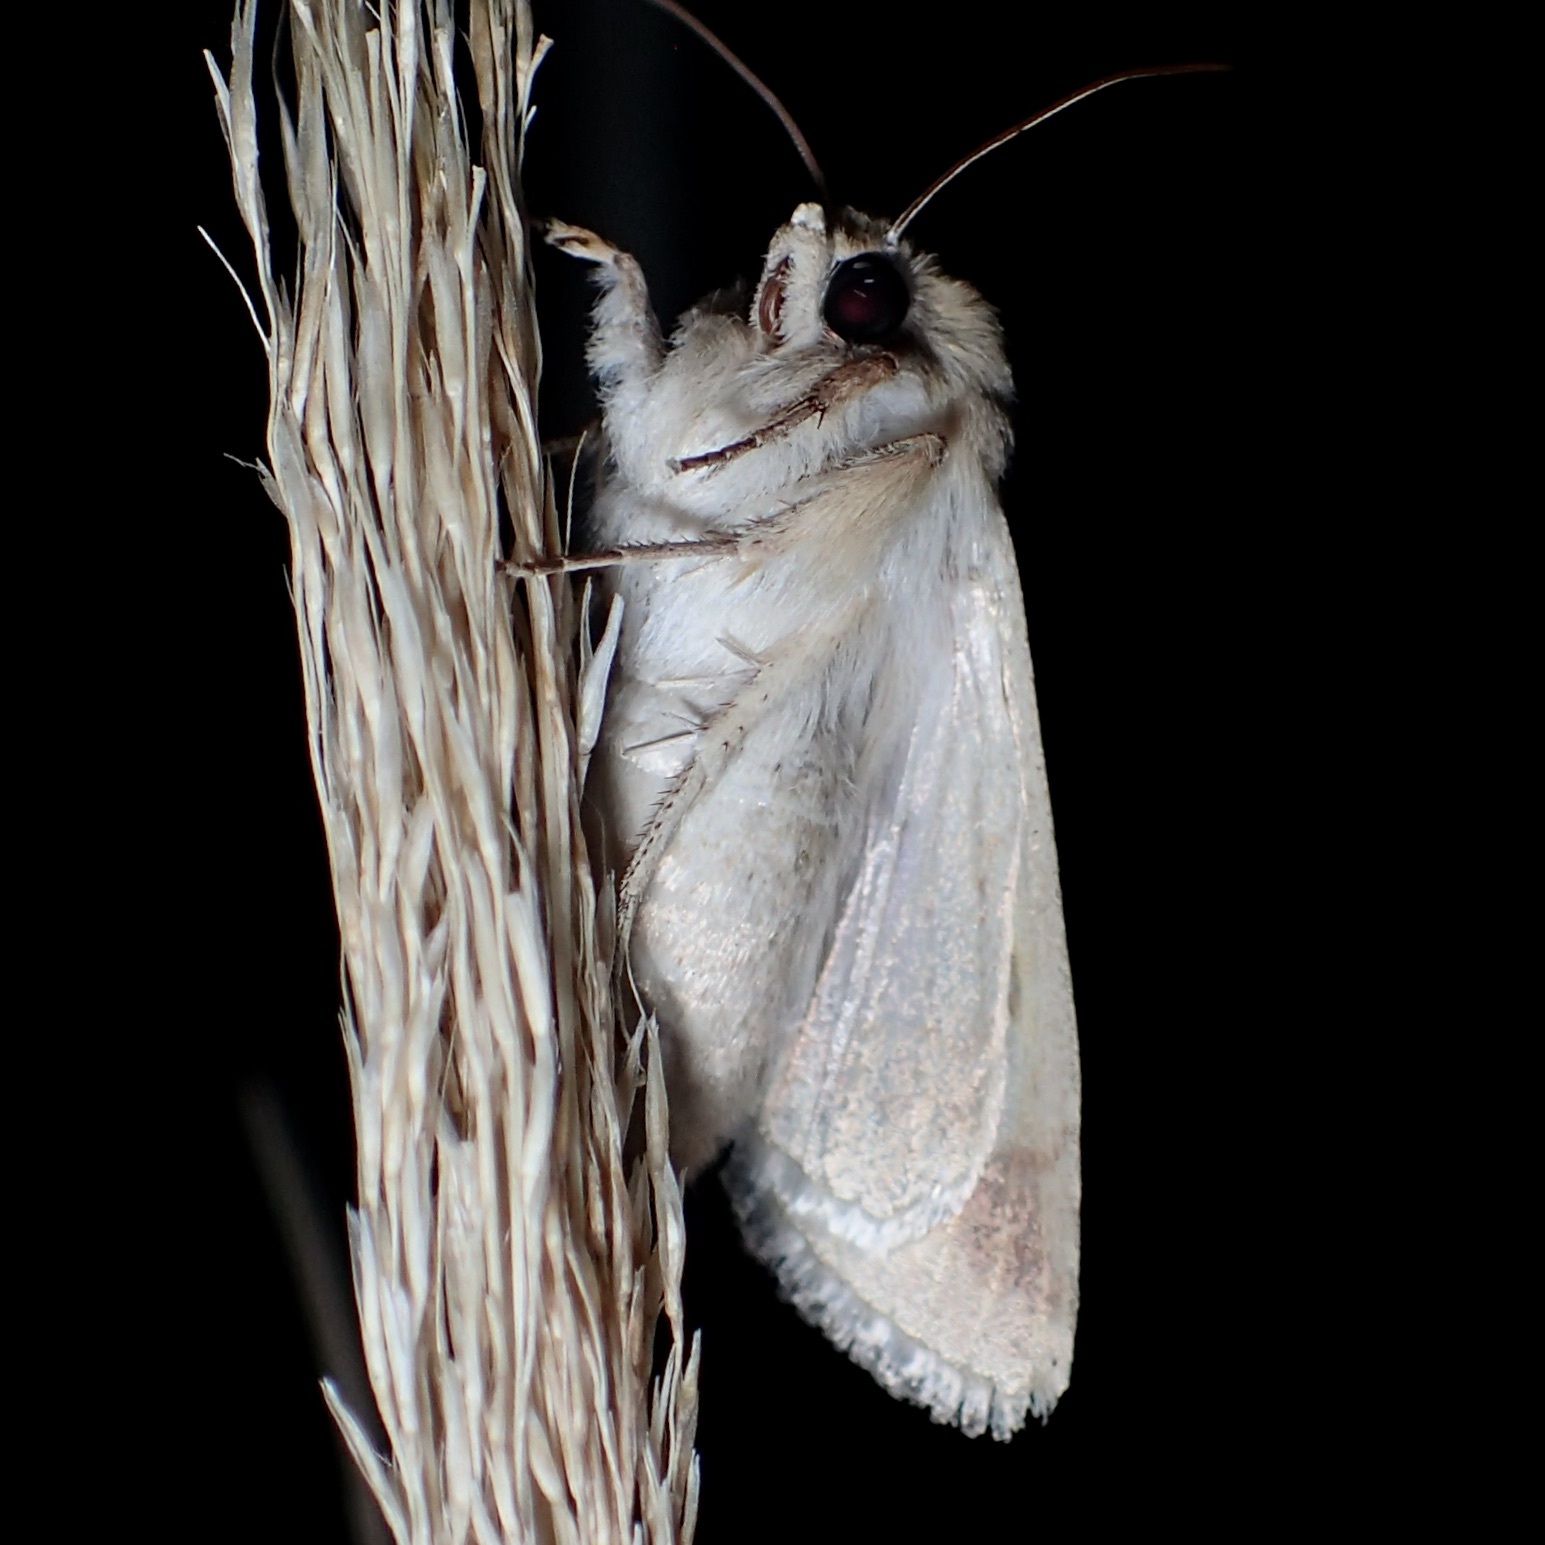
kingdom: Animalia
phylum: Arthropoda
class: Insecta
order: Lepidoptera
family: Noctuidae
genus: Helicoverpa
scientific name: Helicoverpa zea
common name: Bollworm
